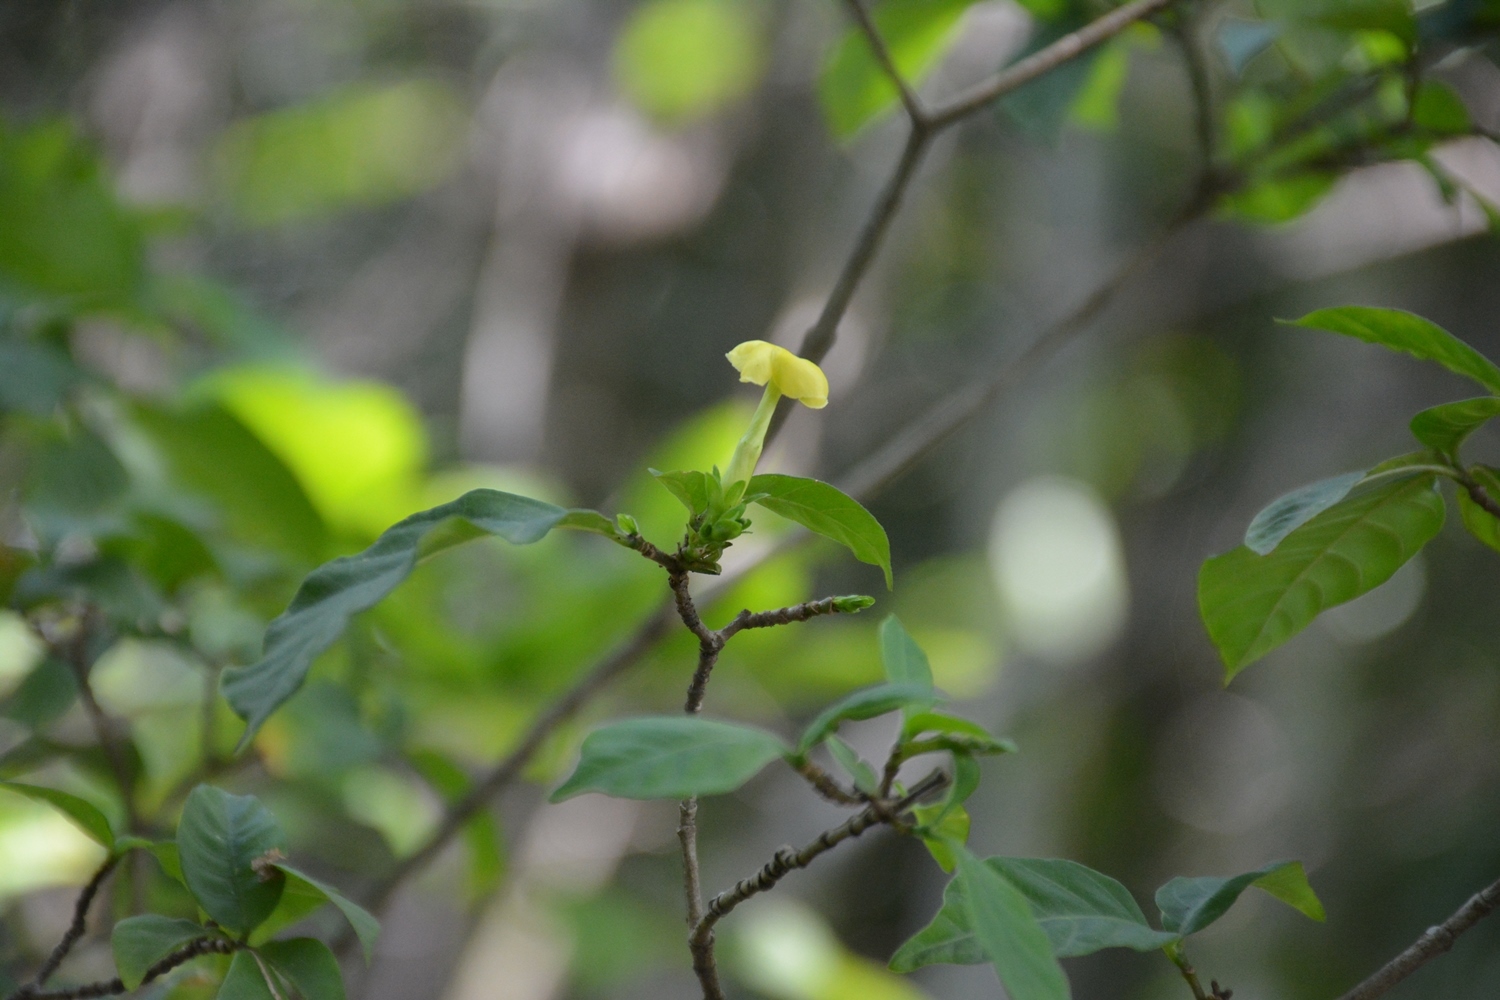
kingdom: Plantae
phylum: Tracheophyta
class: Magnoliopsida
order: Gentianales
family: Apocynaceae
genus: Tabernaemontana
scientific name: Tabernaemontana hannae
